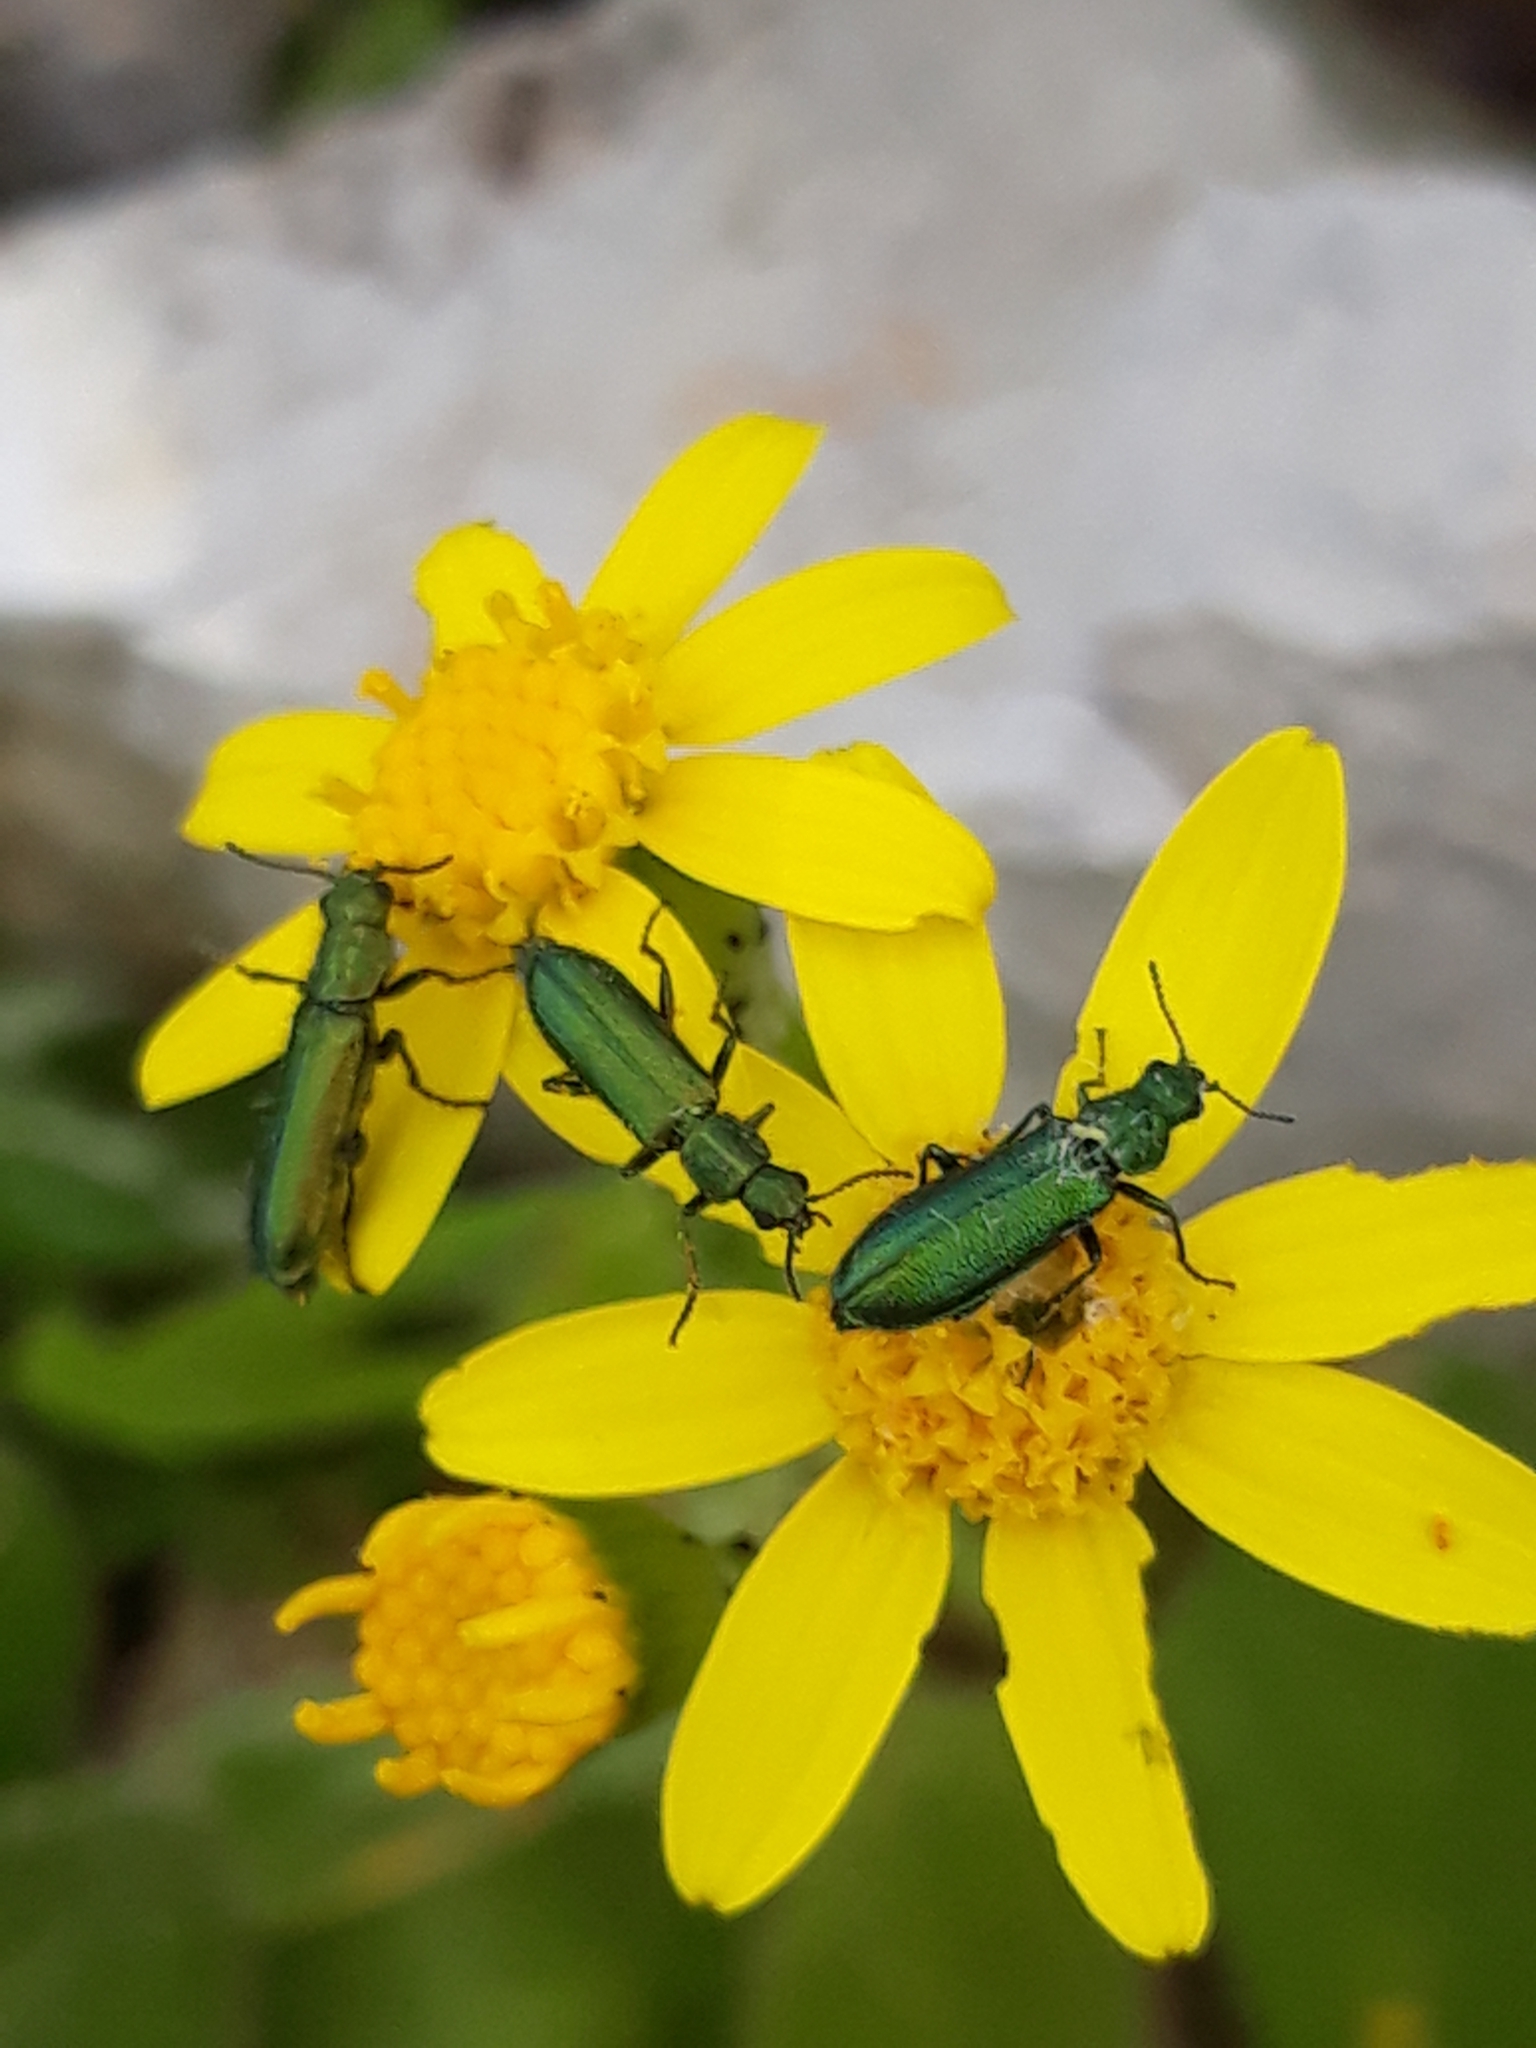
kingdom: Animalia
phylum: Arthropoda
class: Insecta
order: Coleoptera
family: Dasytidae
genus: Psilothrix
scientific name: Psilothrix viridicoerulea
